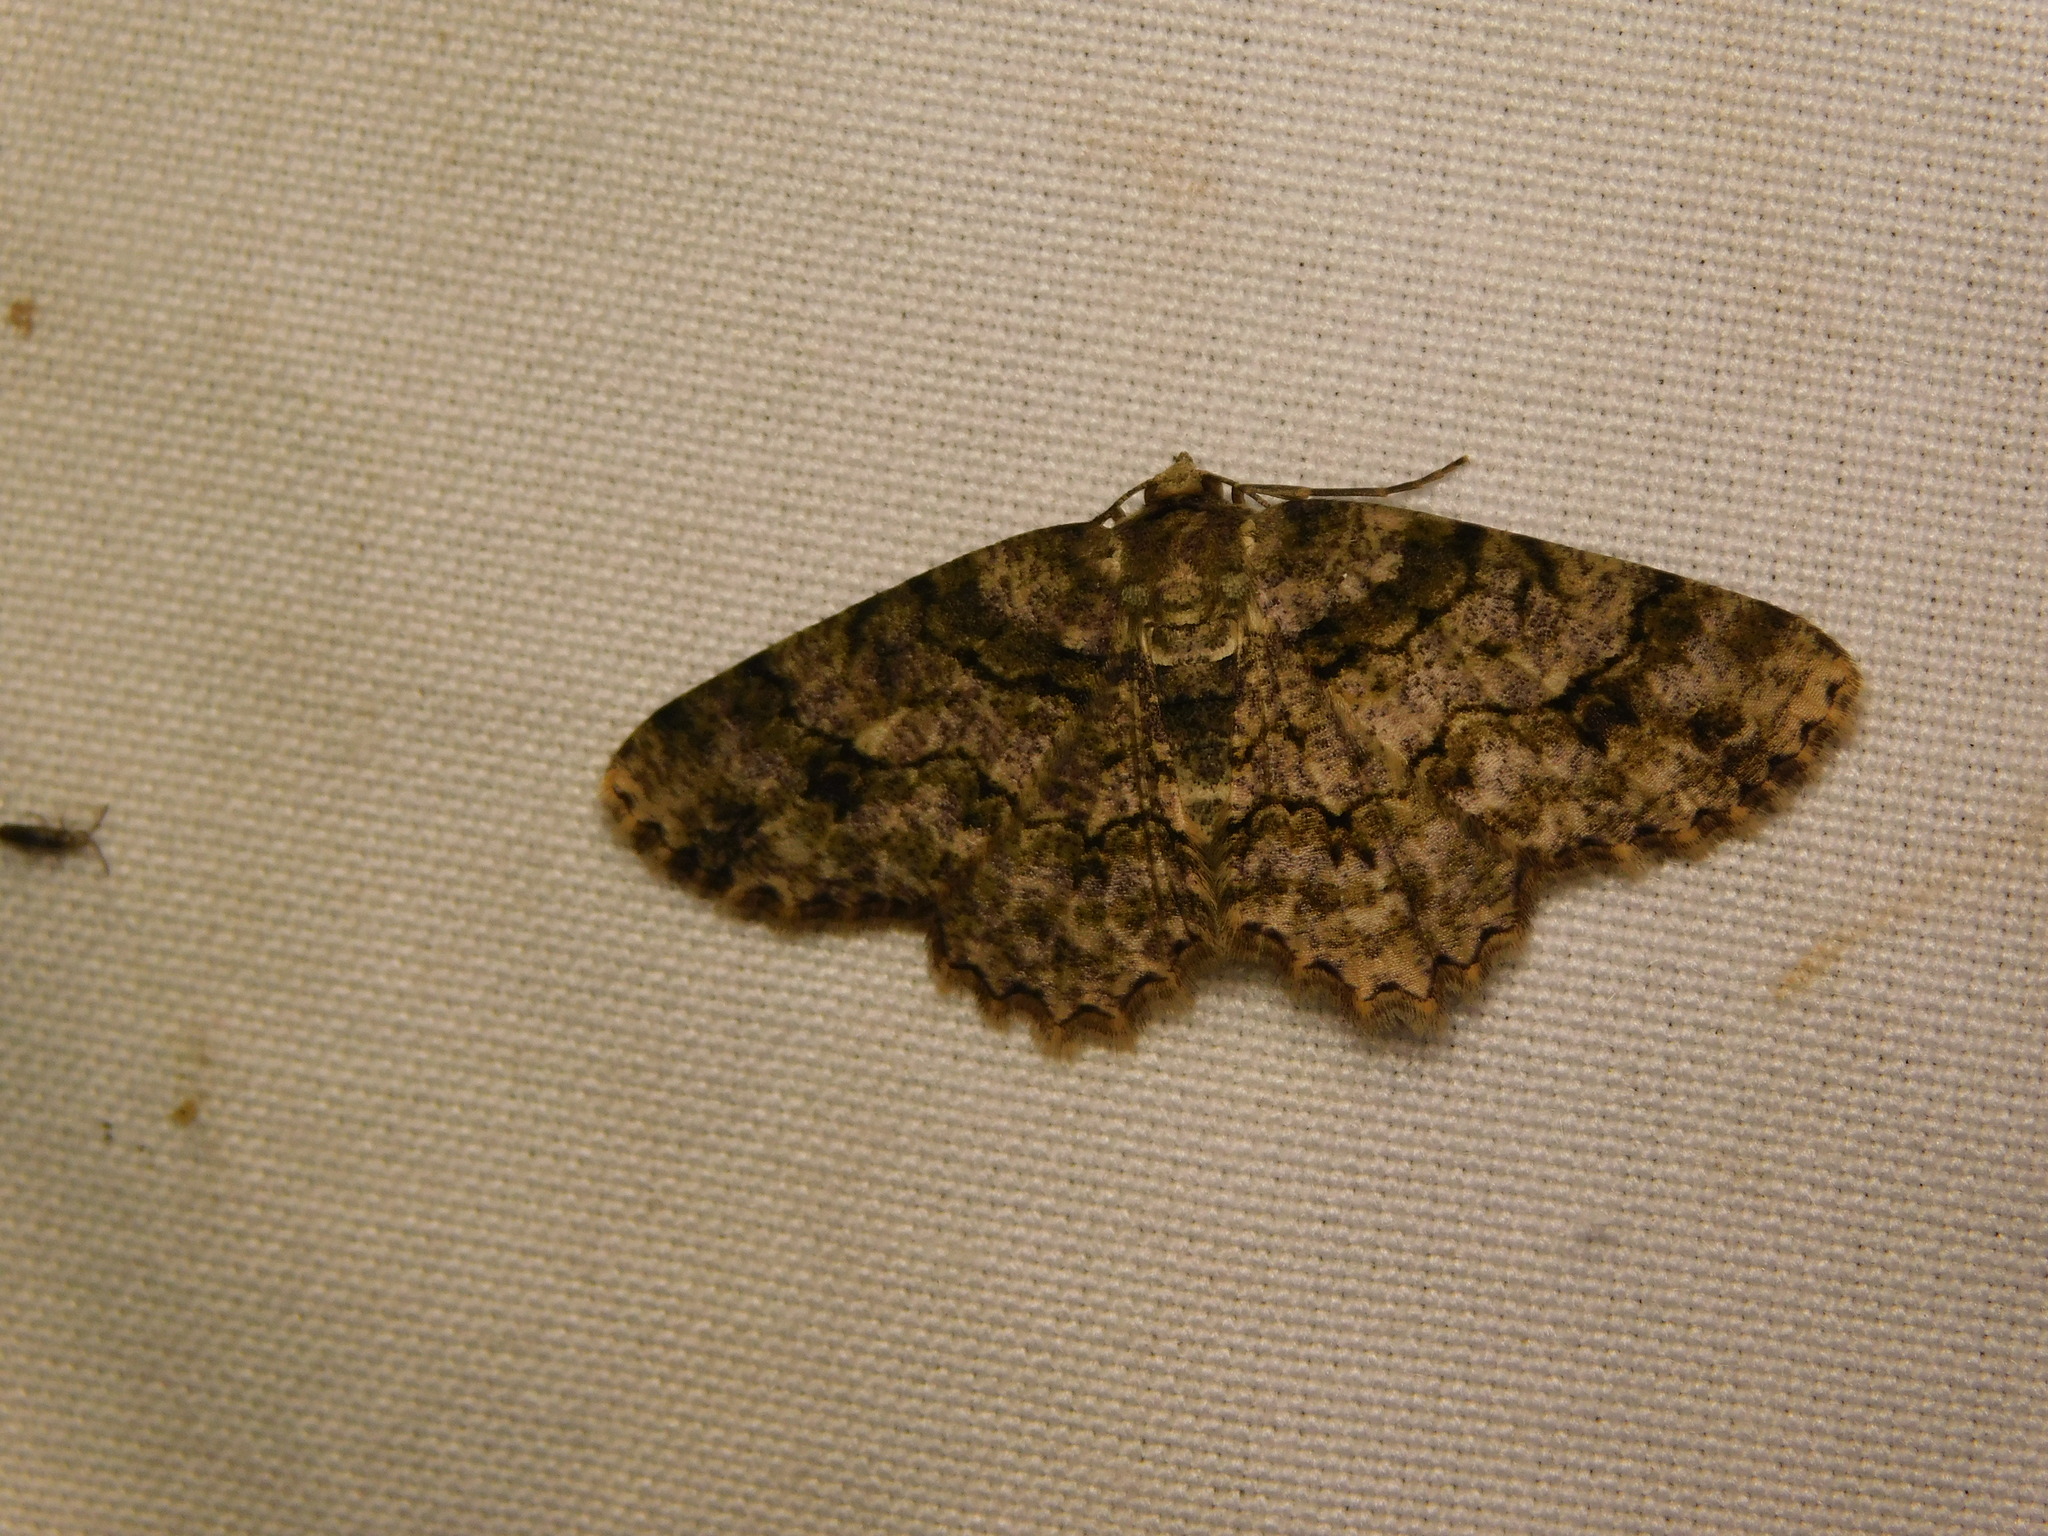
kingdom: Animalia
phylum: Arthropoda
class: Insecta
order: Lepidoptera
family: Geometridae
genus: Paradarisa
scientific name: Paradarisa heledaria
